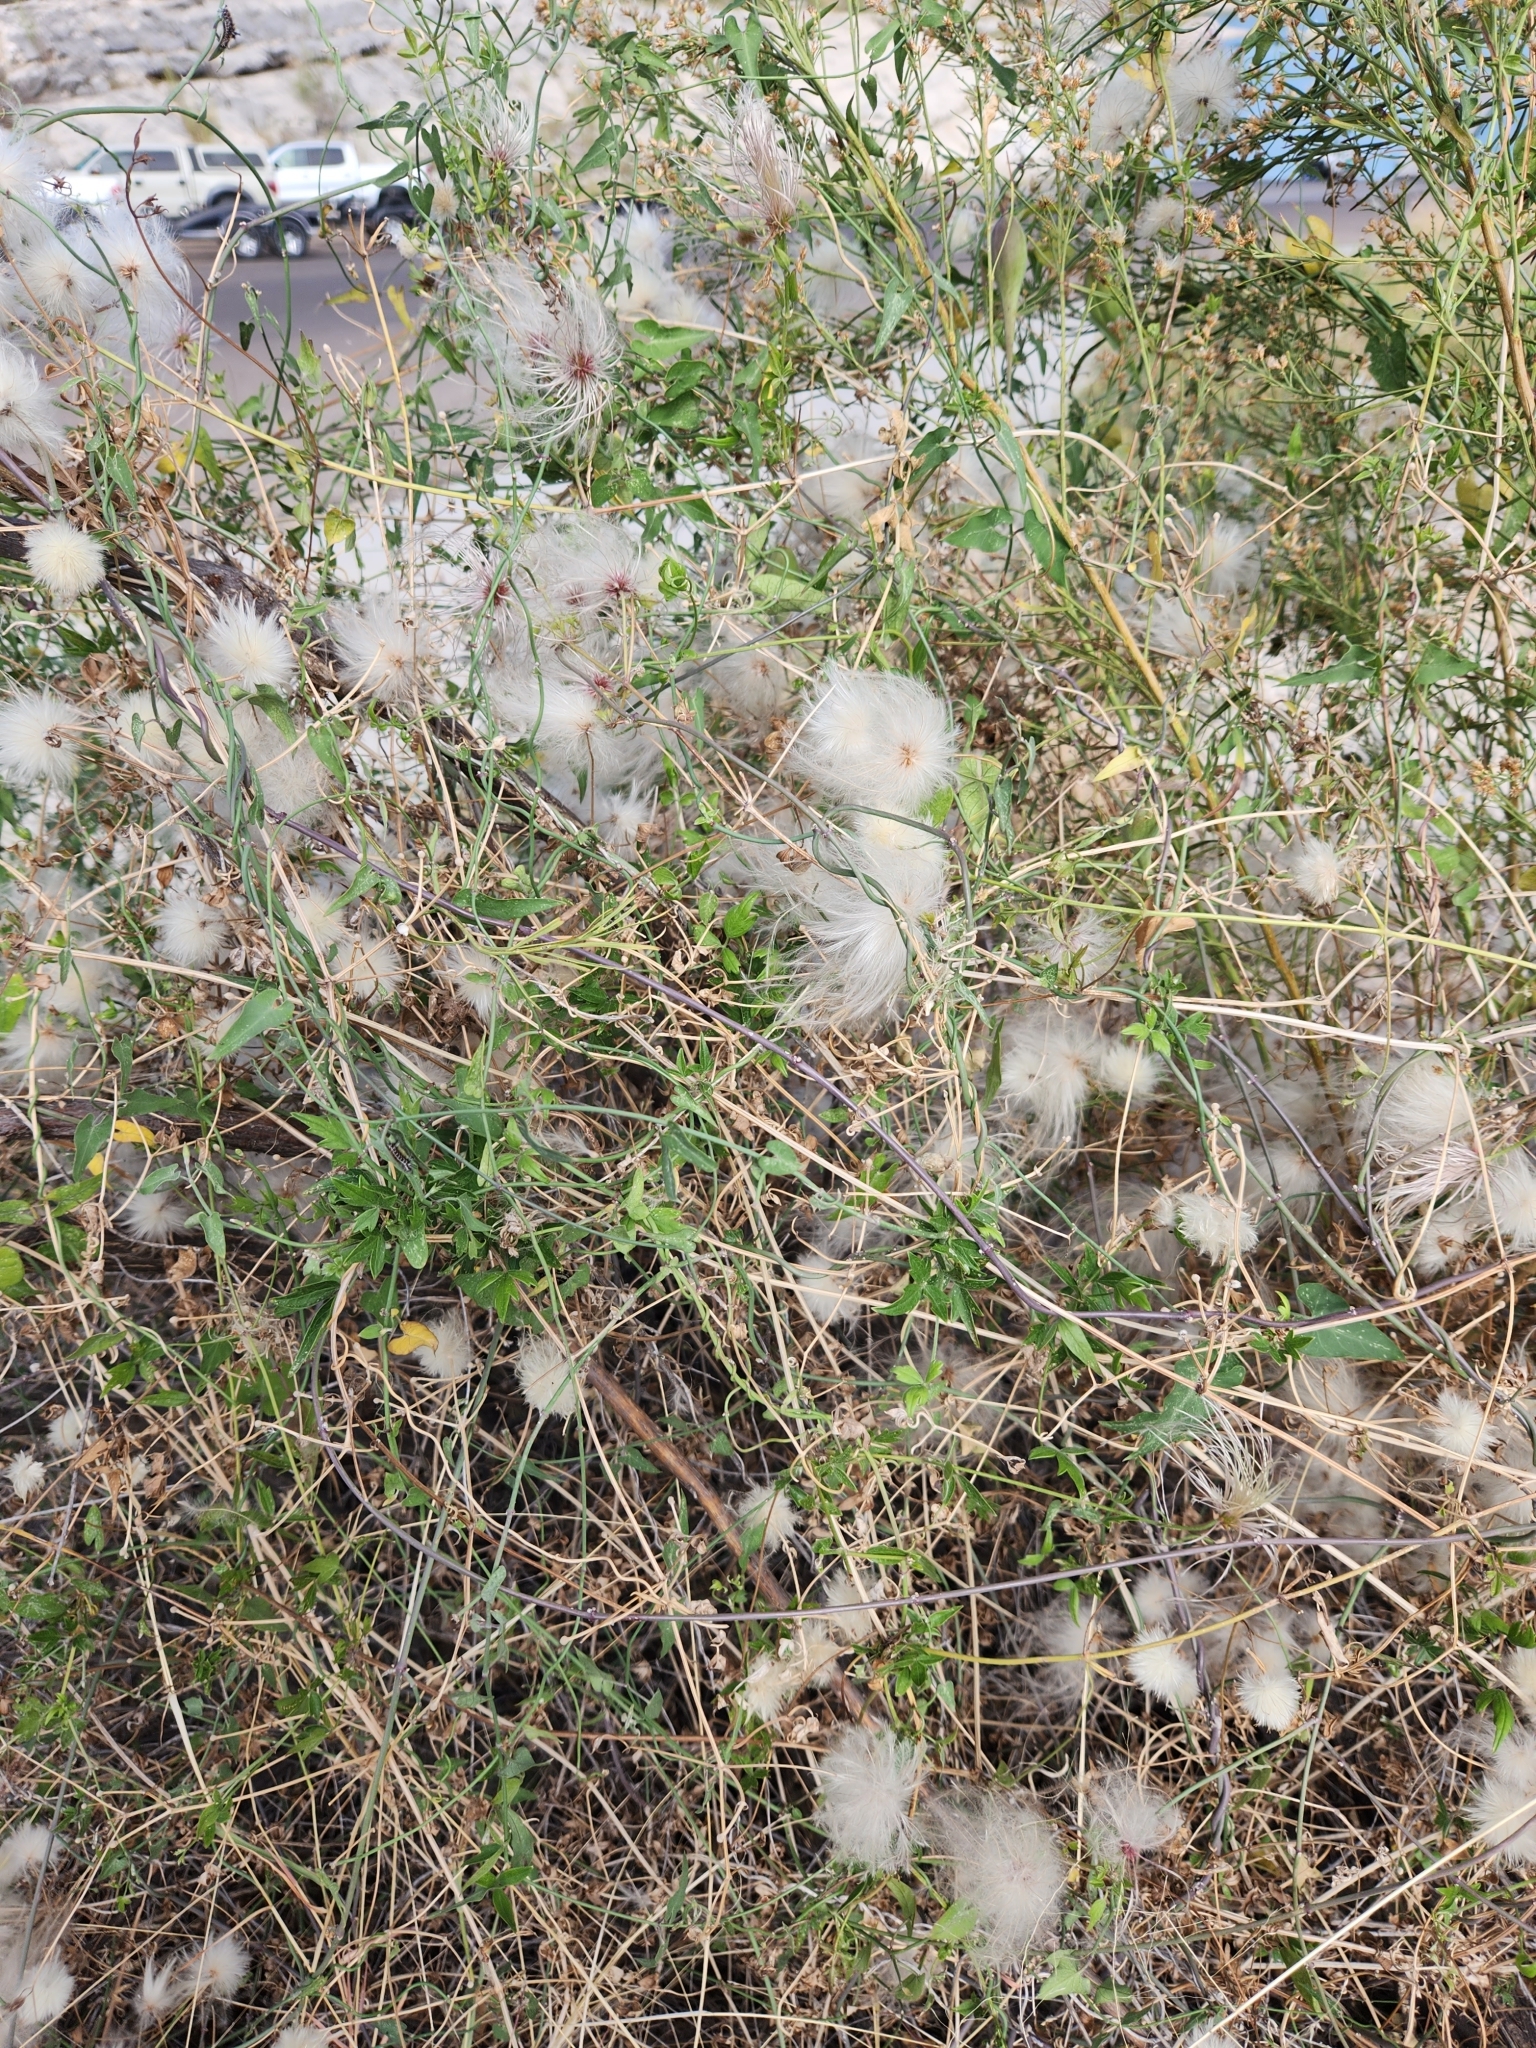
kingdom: Plantae
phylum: Tracheophyta
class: Magnoliopsida
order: Ranunculales
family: Ranunculaceae
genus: Clematis
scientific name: Clematis drummondii
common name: Texas virgin's bower
